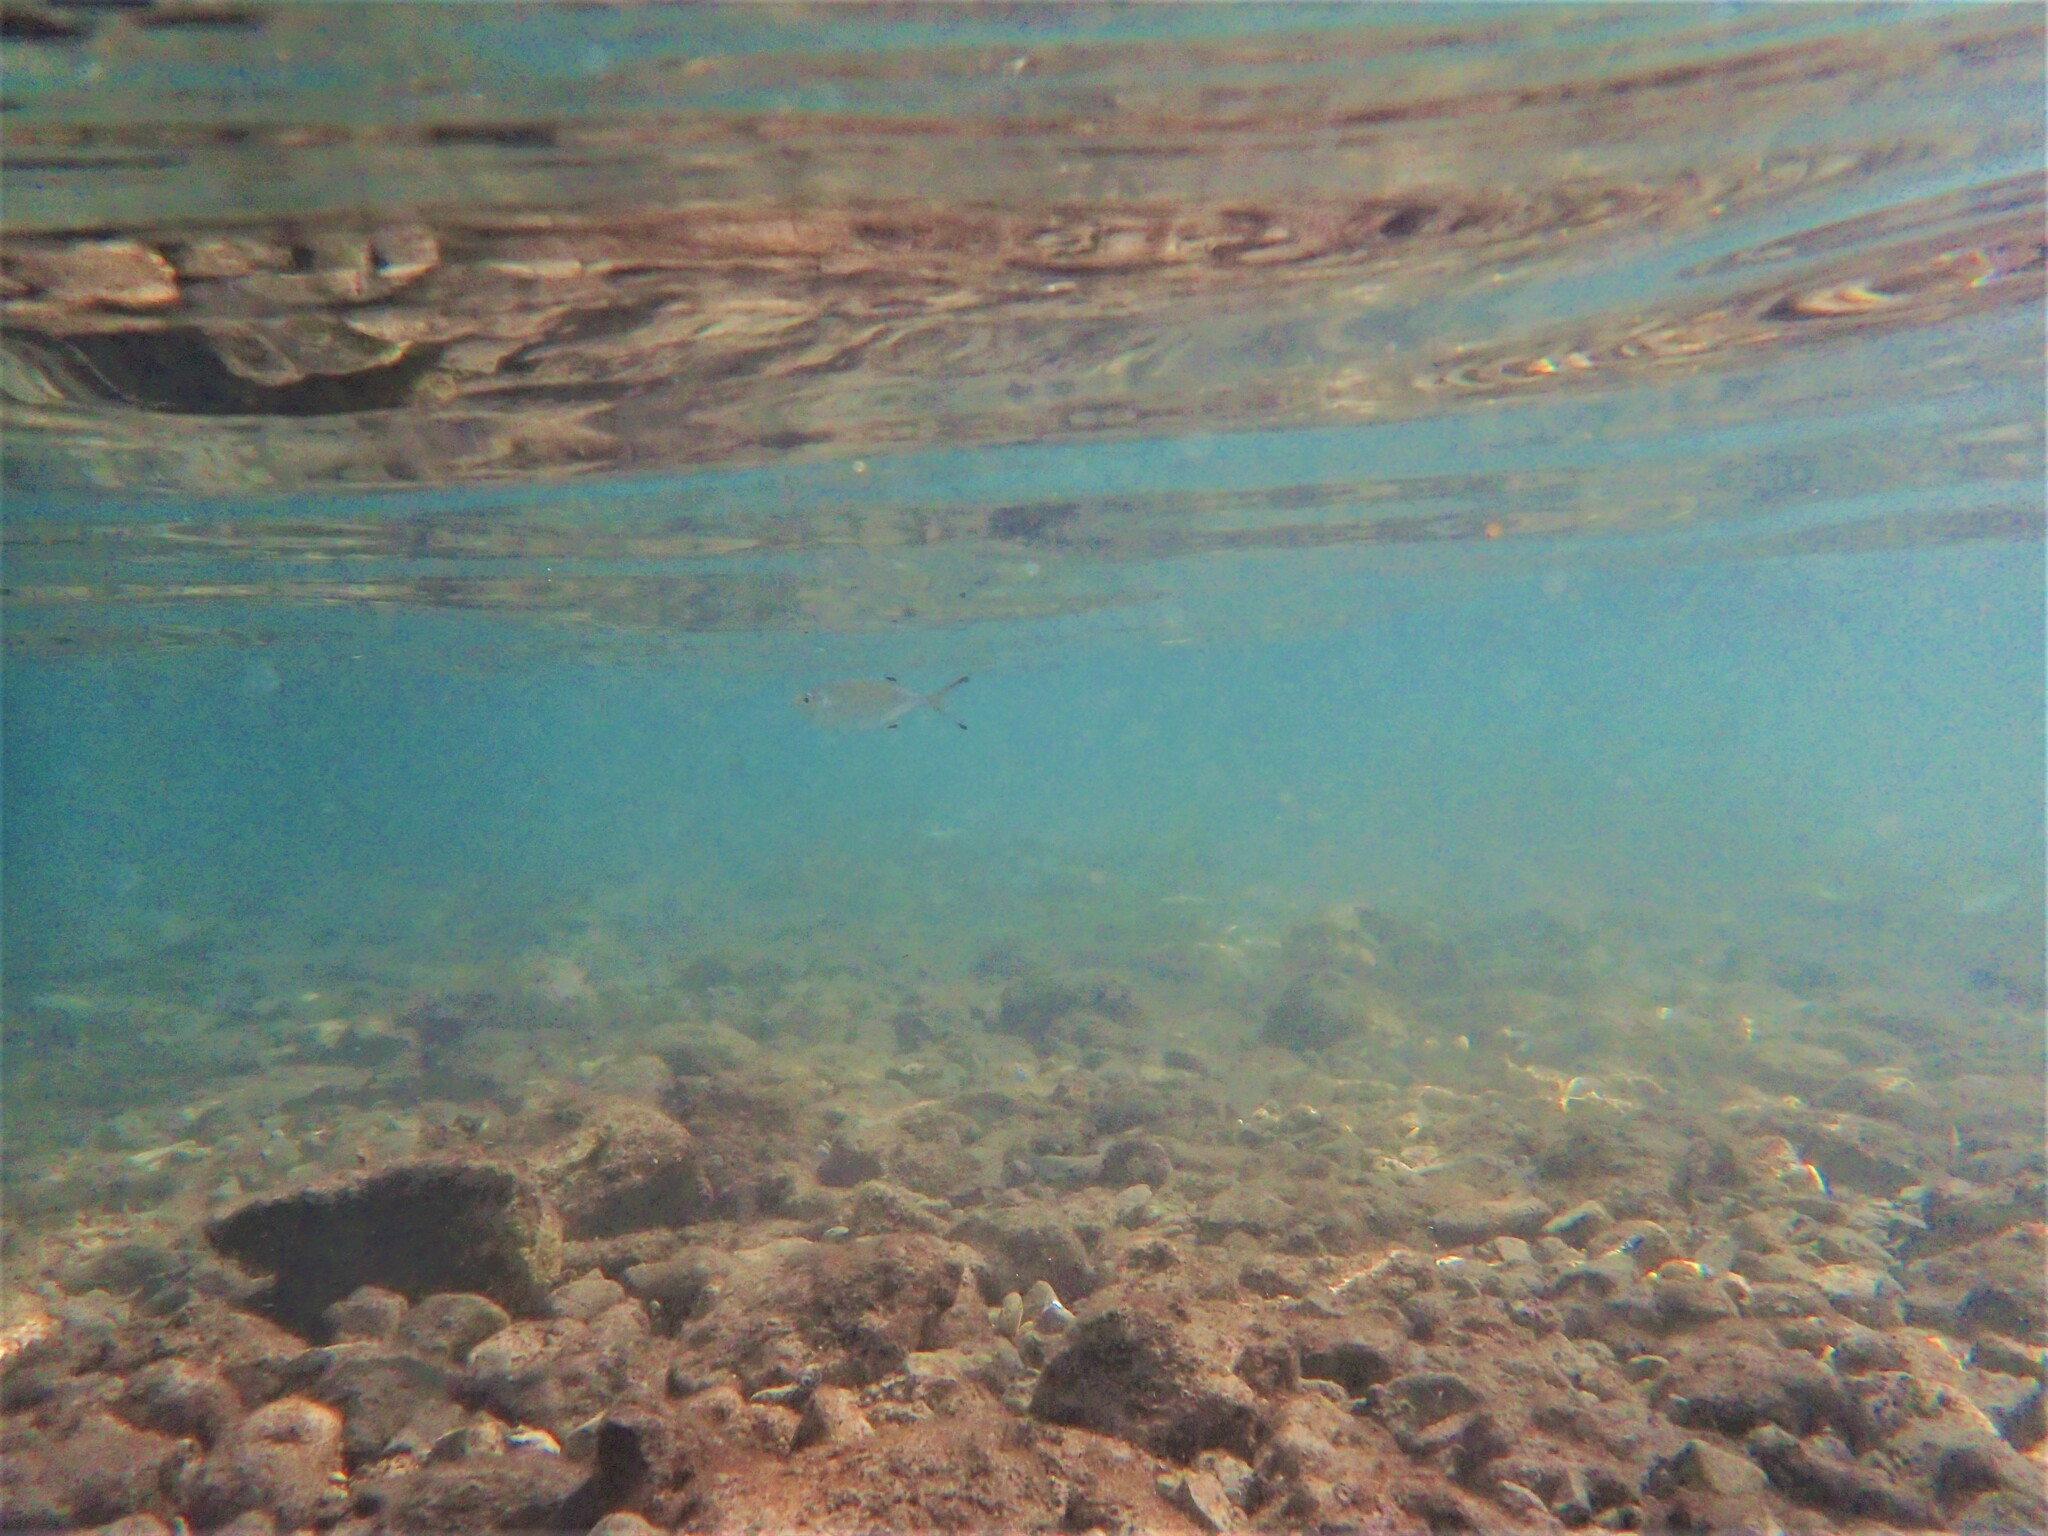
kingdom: Animalia
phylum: Chordata
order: Perciformes
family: Carangidae
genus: Trachinotus
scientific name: Trachinotus ovatus
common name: Pompano
